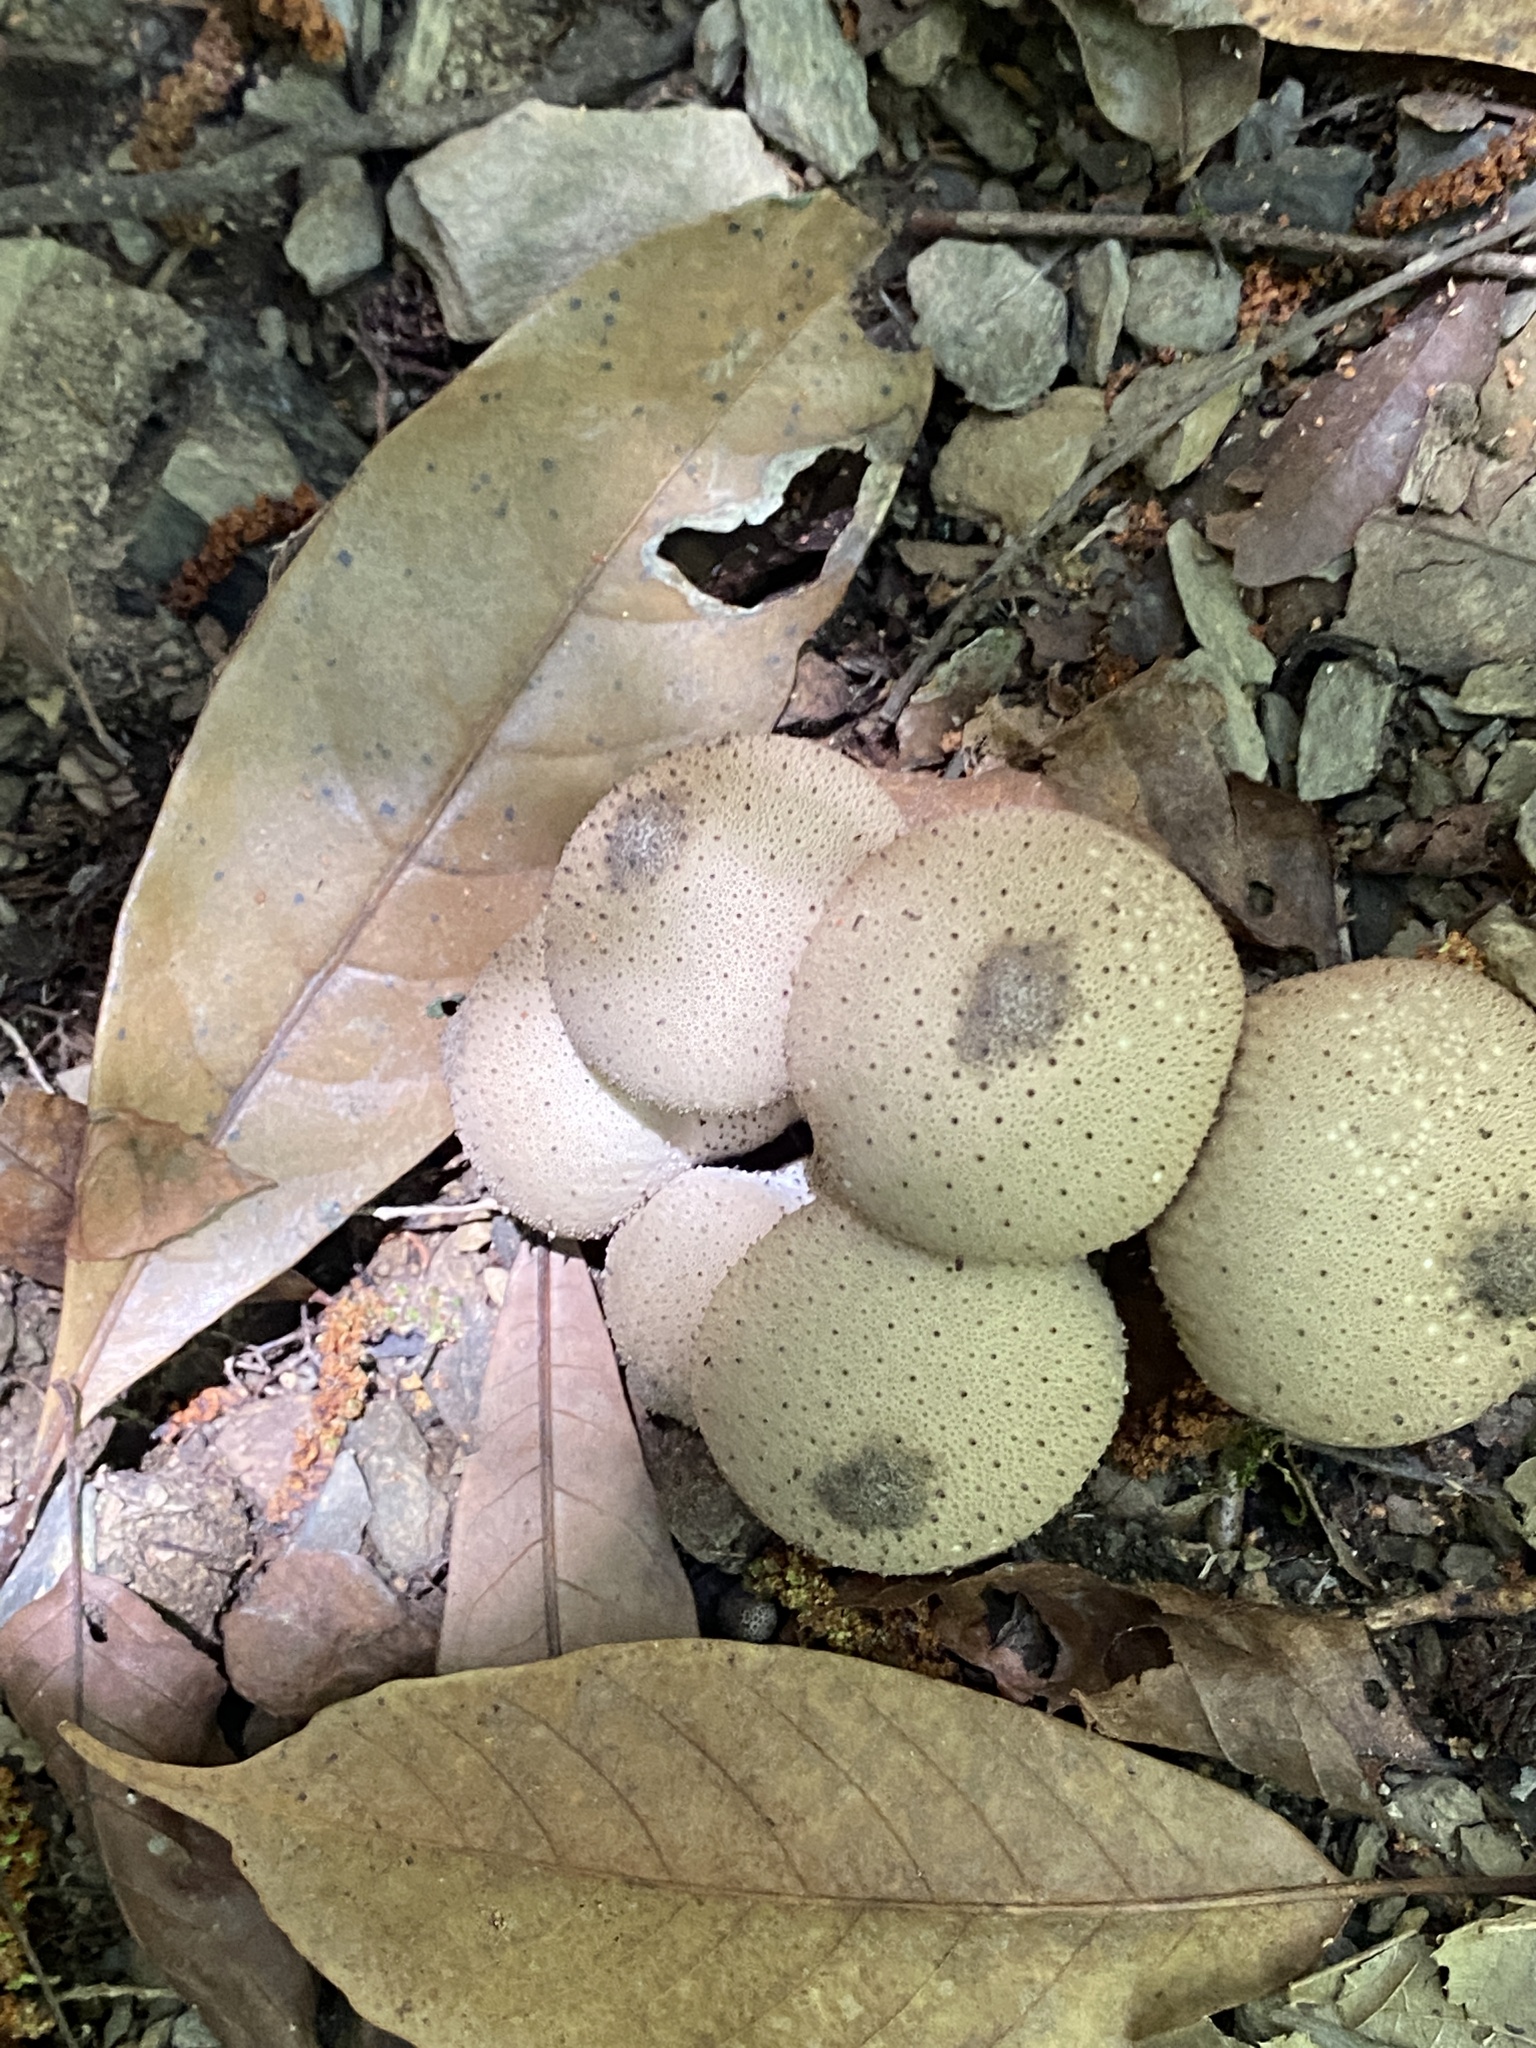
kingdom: Fungi
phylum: Basidiomycota
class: Agaricomycetes
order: Agaricales
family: Lycoperdaceae
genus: Lycoperdon
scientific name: Lycoperdon perlatum
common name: Common puffball
